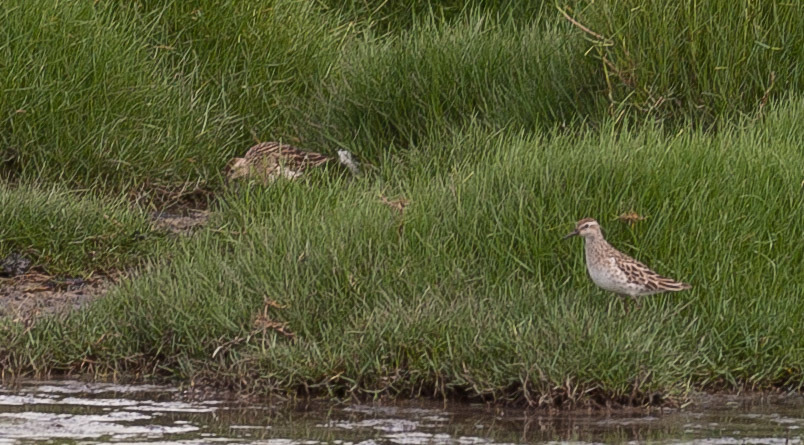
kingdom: Animalia
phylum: Chordata
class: Aves
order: Charadriiformes
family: Scolopacidae
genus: Calidris
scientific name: Calidris acuminata
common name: Sharp-tailed sandpiper
